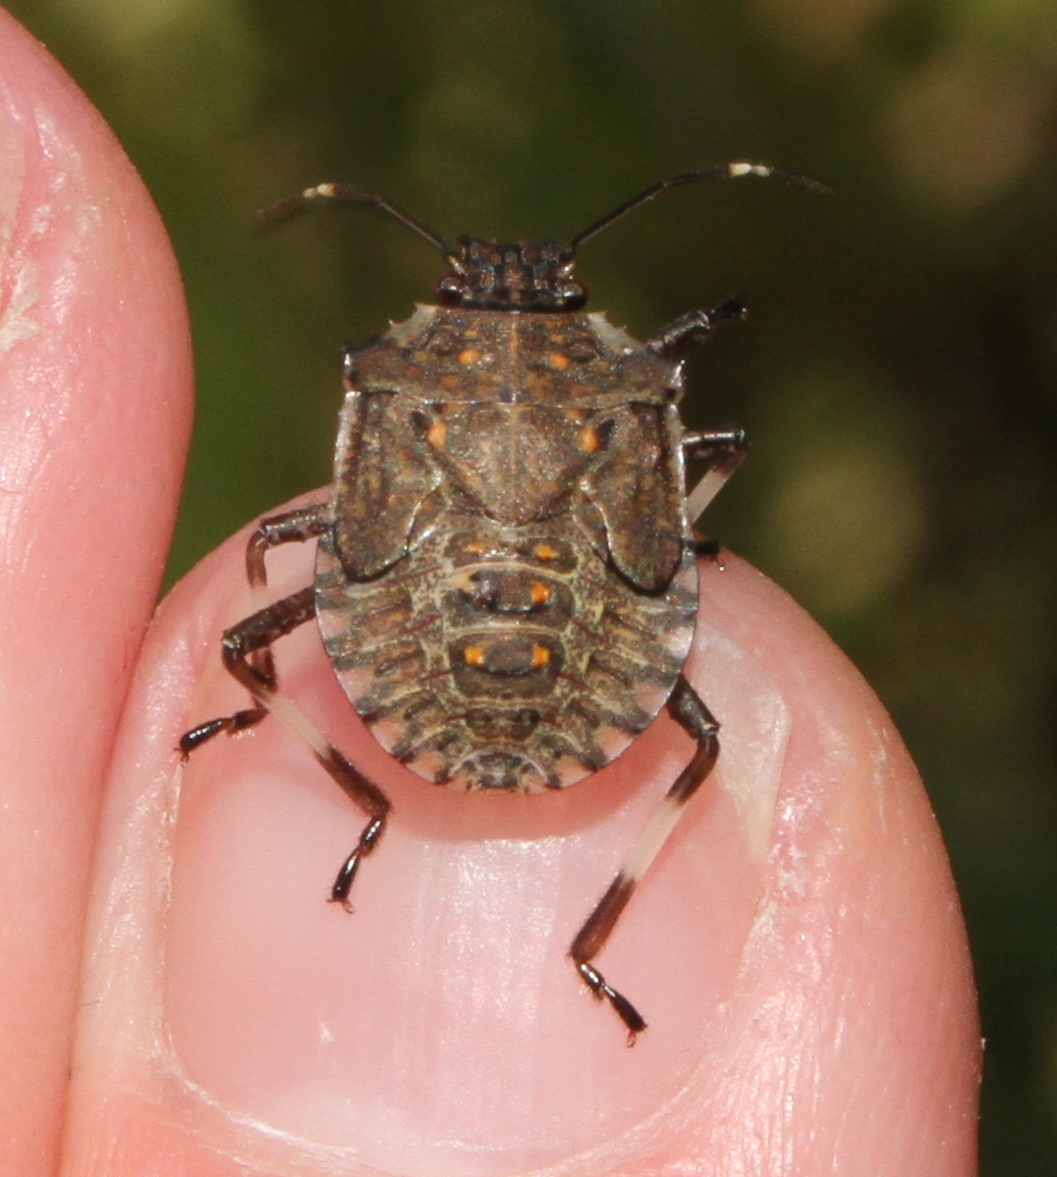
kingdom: Animalia
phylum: Arthropoda
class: Insecta
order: Hemiptera
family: Pentatomidae
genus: Halyomorpha
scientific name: Halyomorpha halys
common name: Brown marmorated stink bug
